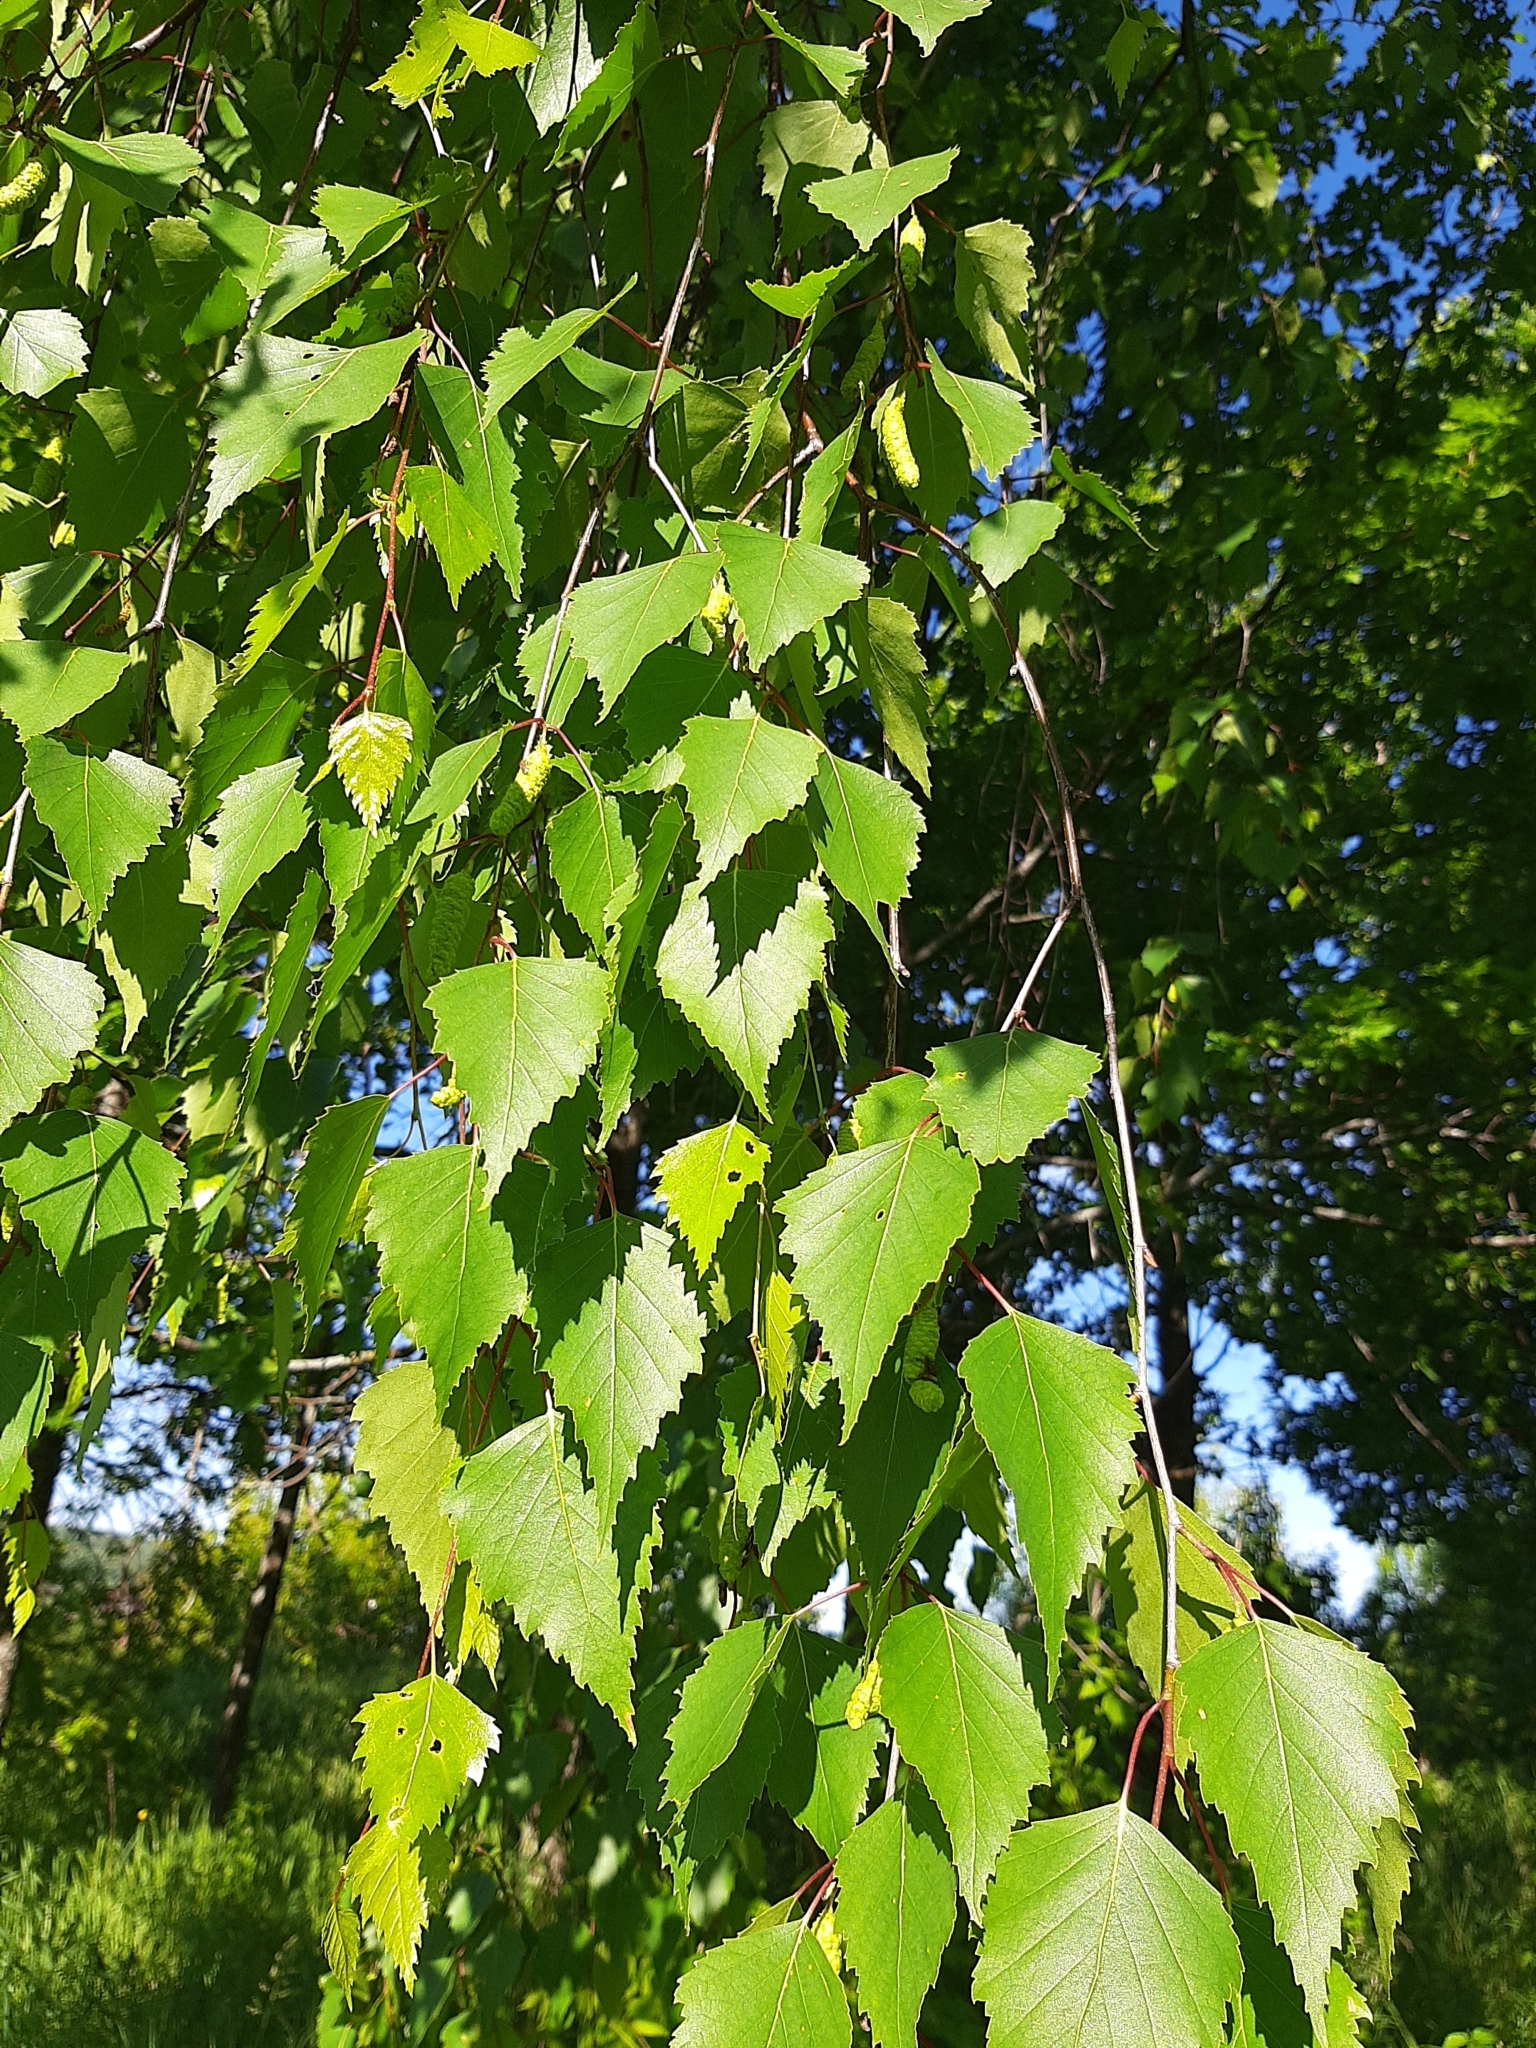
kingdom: Plantae
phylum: Tracheophyta
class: Magnoliopsida
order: Fagales
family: Betulaceae
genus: Betula
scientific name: Betula pendula
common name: Silver birch
